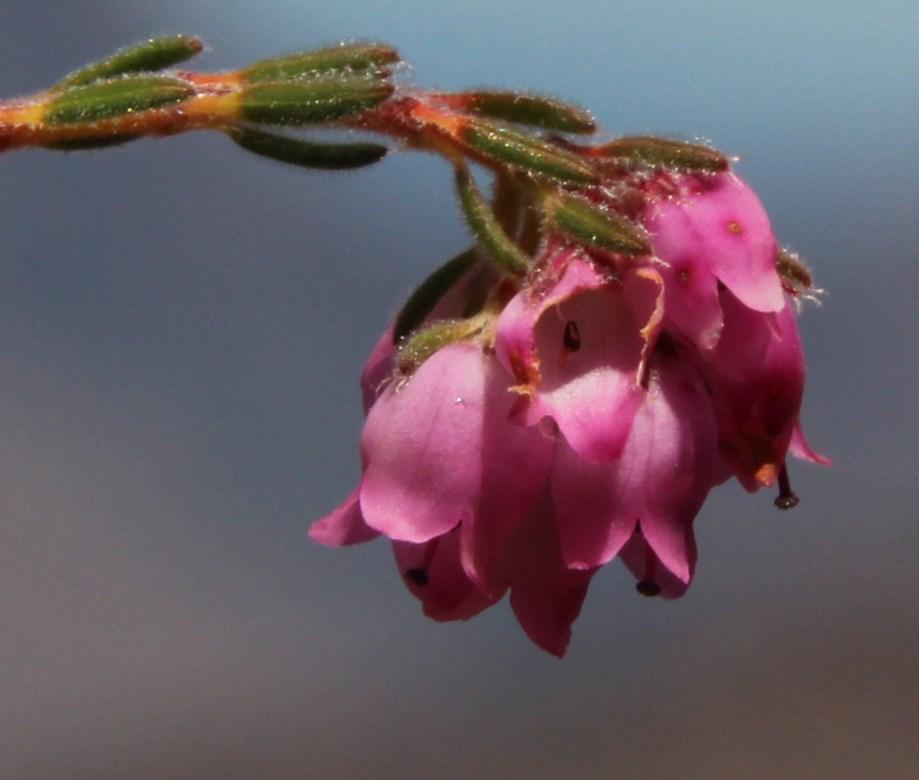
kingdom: Plantae
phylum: Tracheophyta
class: Magnoliopsida
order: Ericales
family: Ericaceae
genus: Erica
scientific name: Erica sphaerocephala
